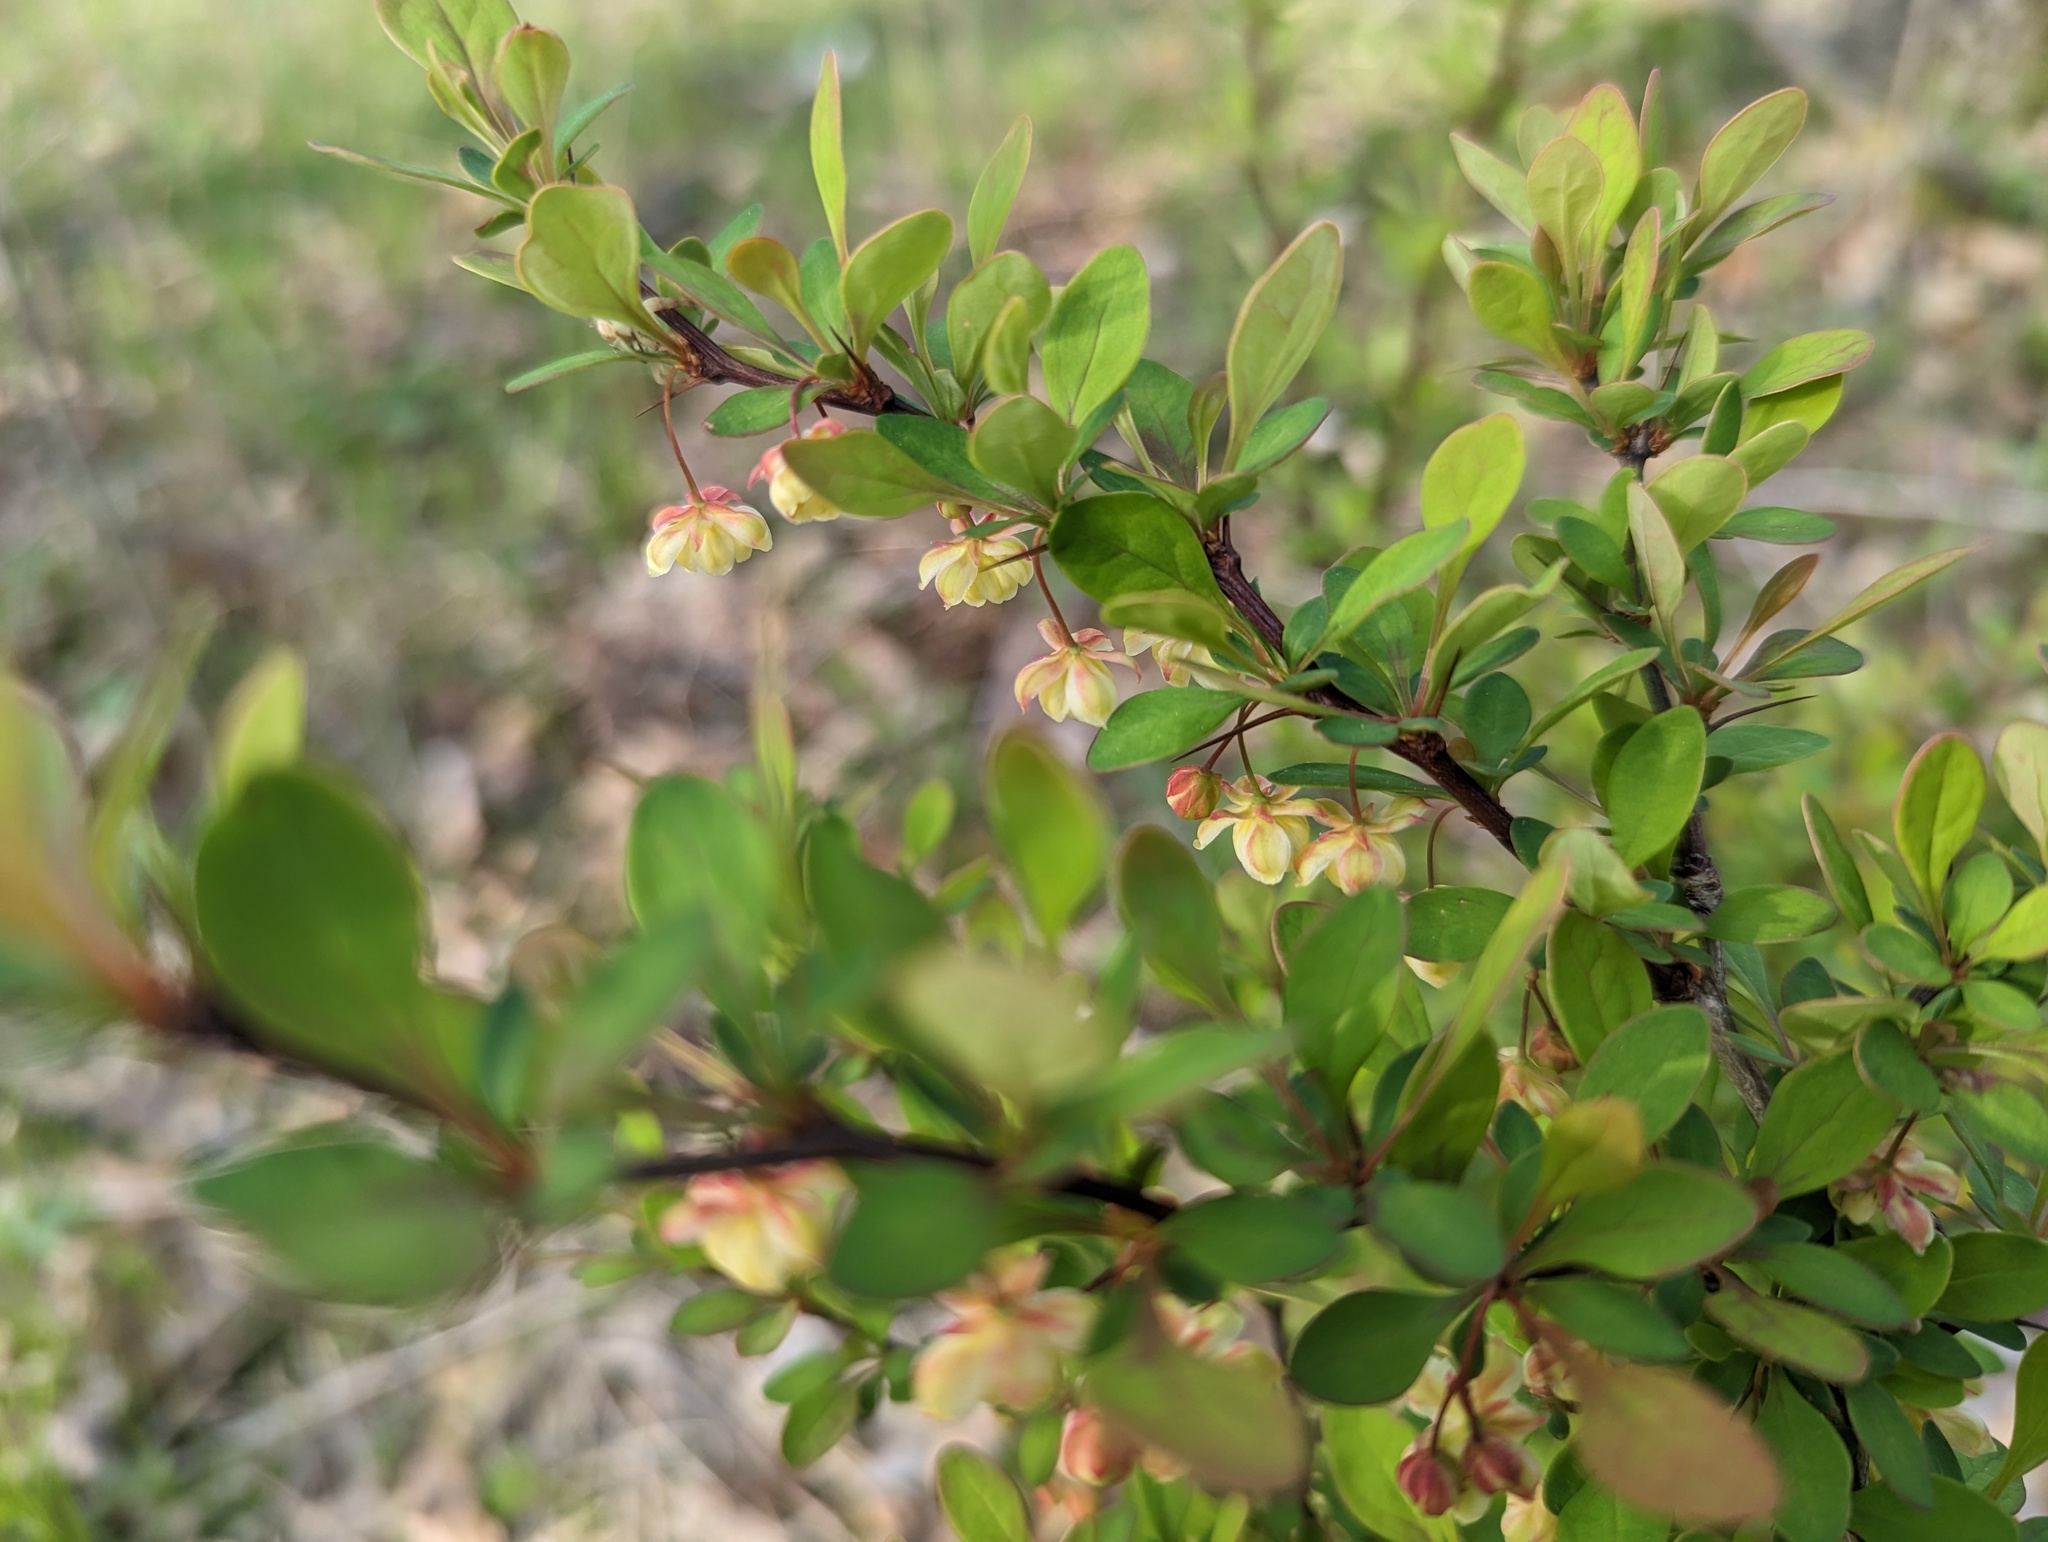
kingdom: Plantae
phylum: Tracheophyta
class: Magnoliopsida
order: Ranunculales
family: Berberidaceae
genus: Berberis
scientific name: Berberis thunbergii
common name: Japanese barberry
